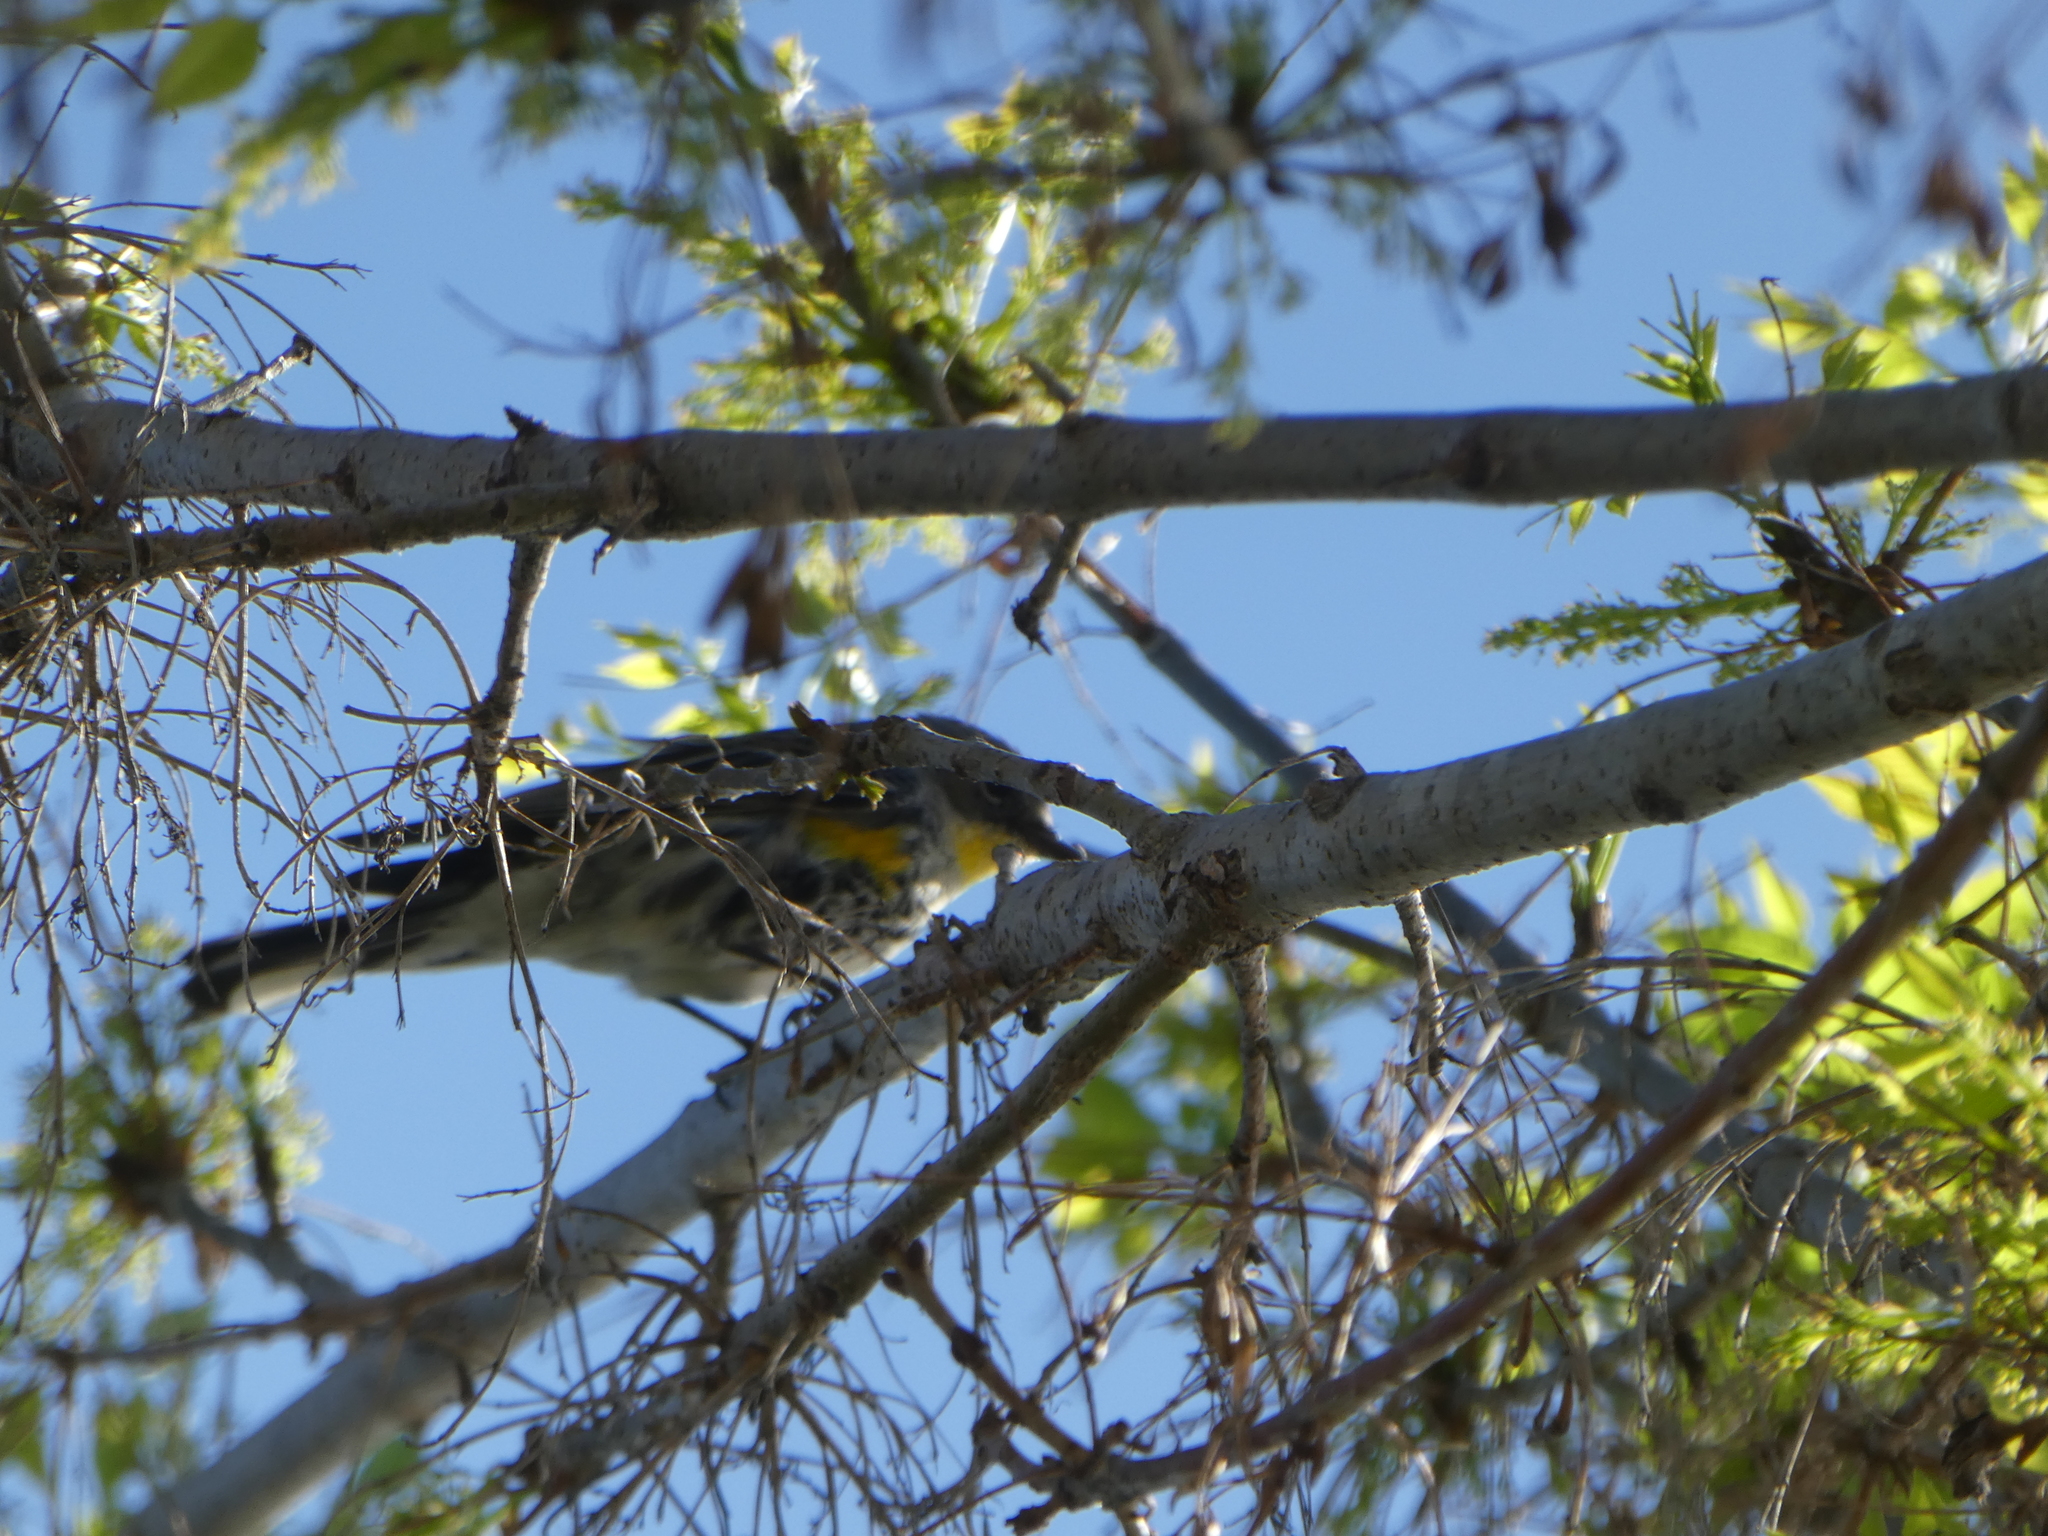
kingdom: Animalia
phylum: Chordata
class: Aves
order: Passeriformes
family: Parulidae
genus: Setophaga
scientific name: Setophaga coronata
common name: Myrtle warbler
